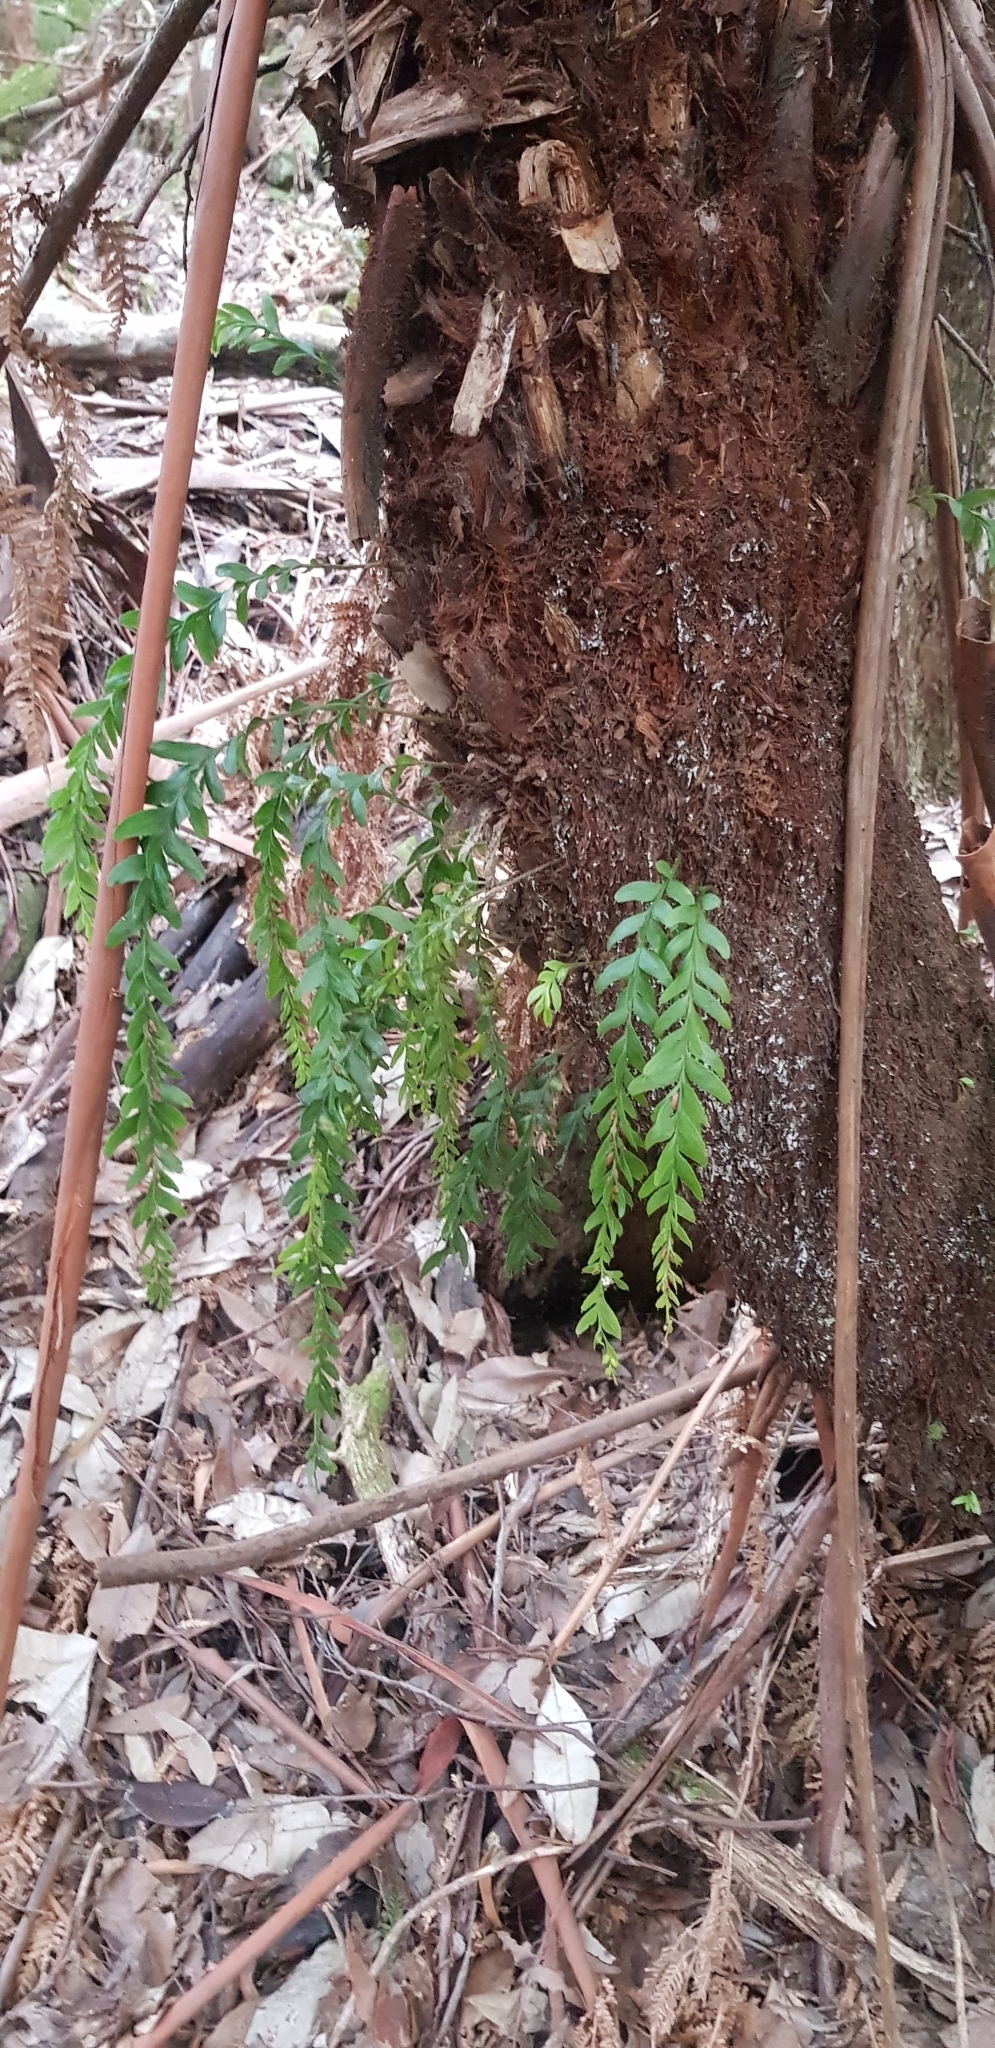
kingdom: Plantae
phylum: Tracheophyta
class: Polypodiopsida
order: Psilotales
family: Psilotaceae
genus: Tmesipteris
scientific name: Tmesipteris obliqua
